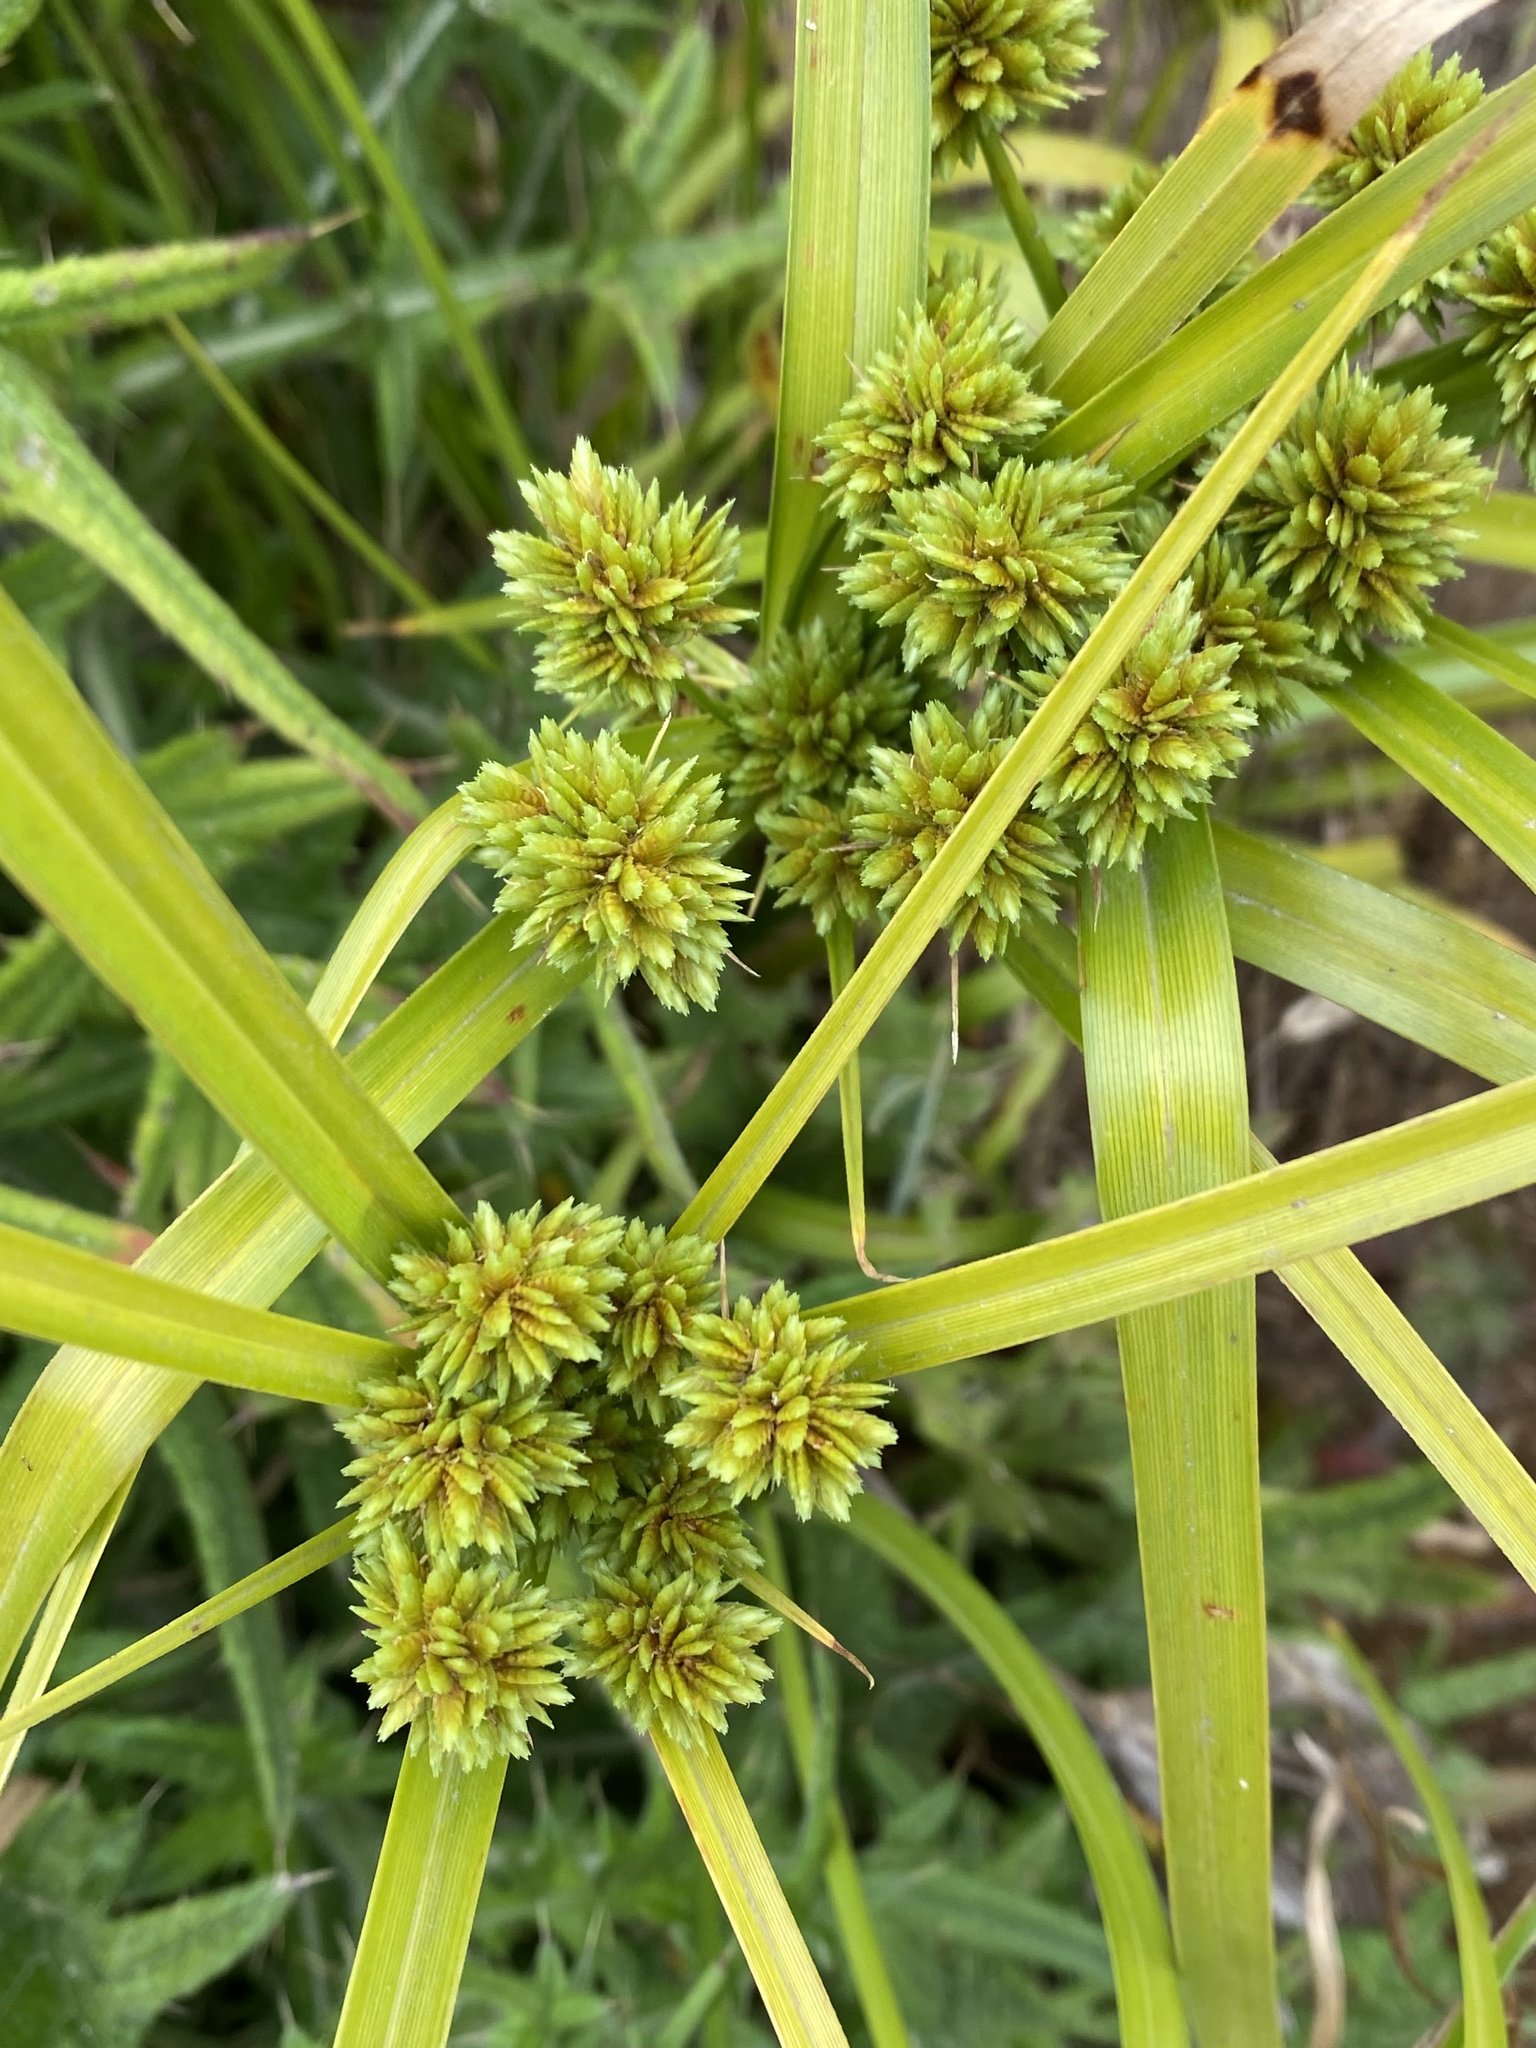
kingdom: Plantae
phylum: Tracheophyta
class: Liliopsida
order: Poales
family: Cyperaceae
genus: Cyperus
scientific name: Cyperus eragrostis
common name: Tall flatsedge
